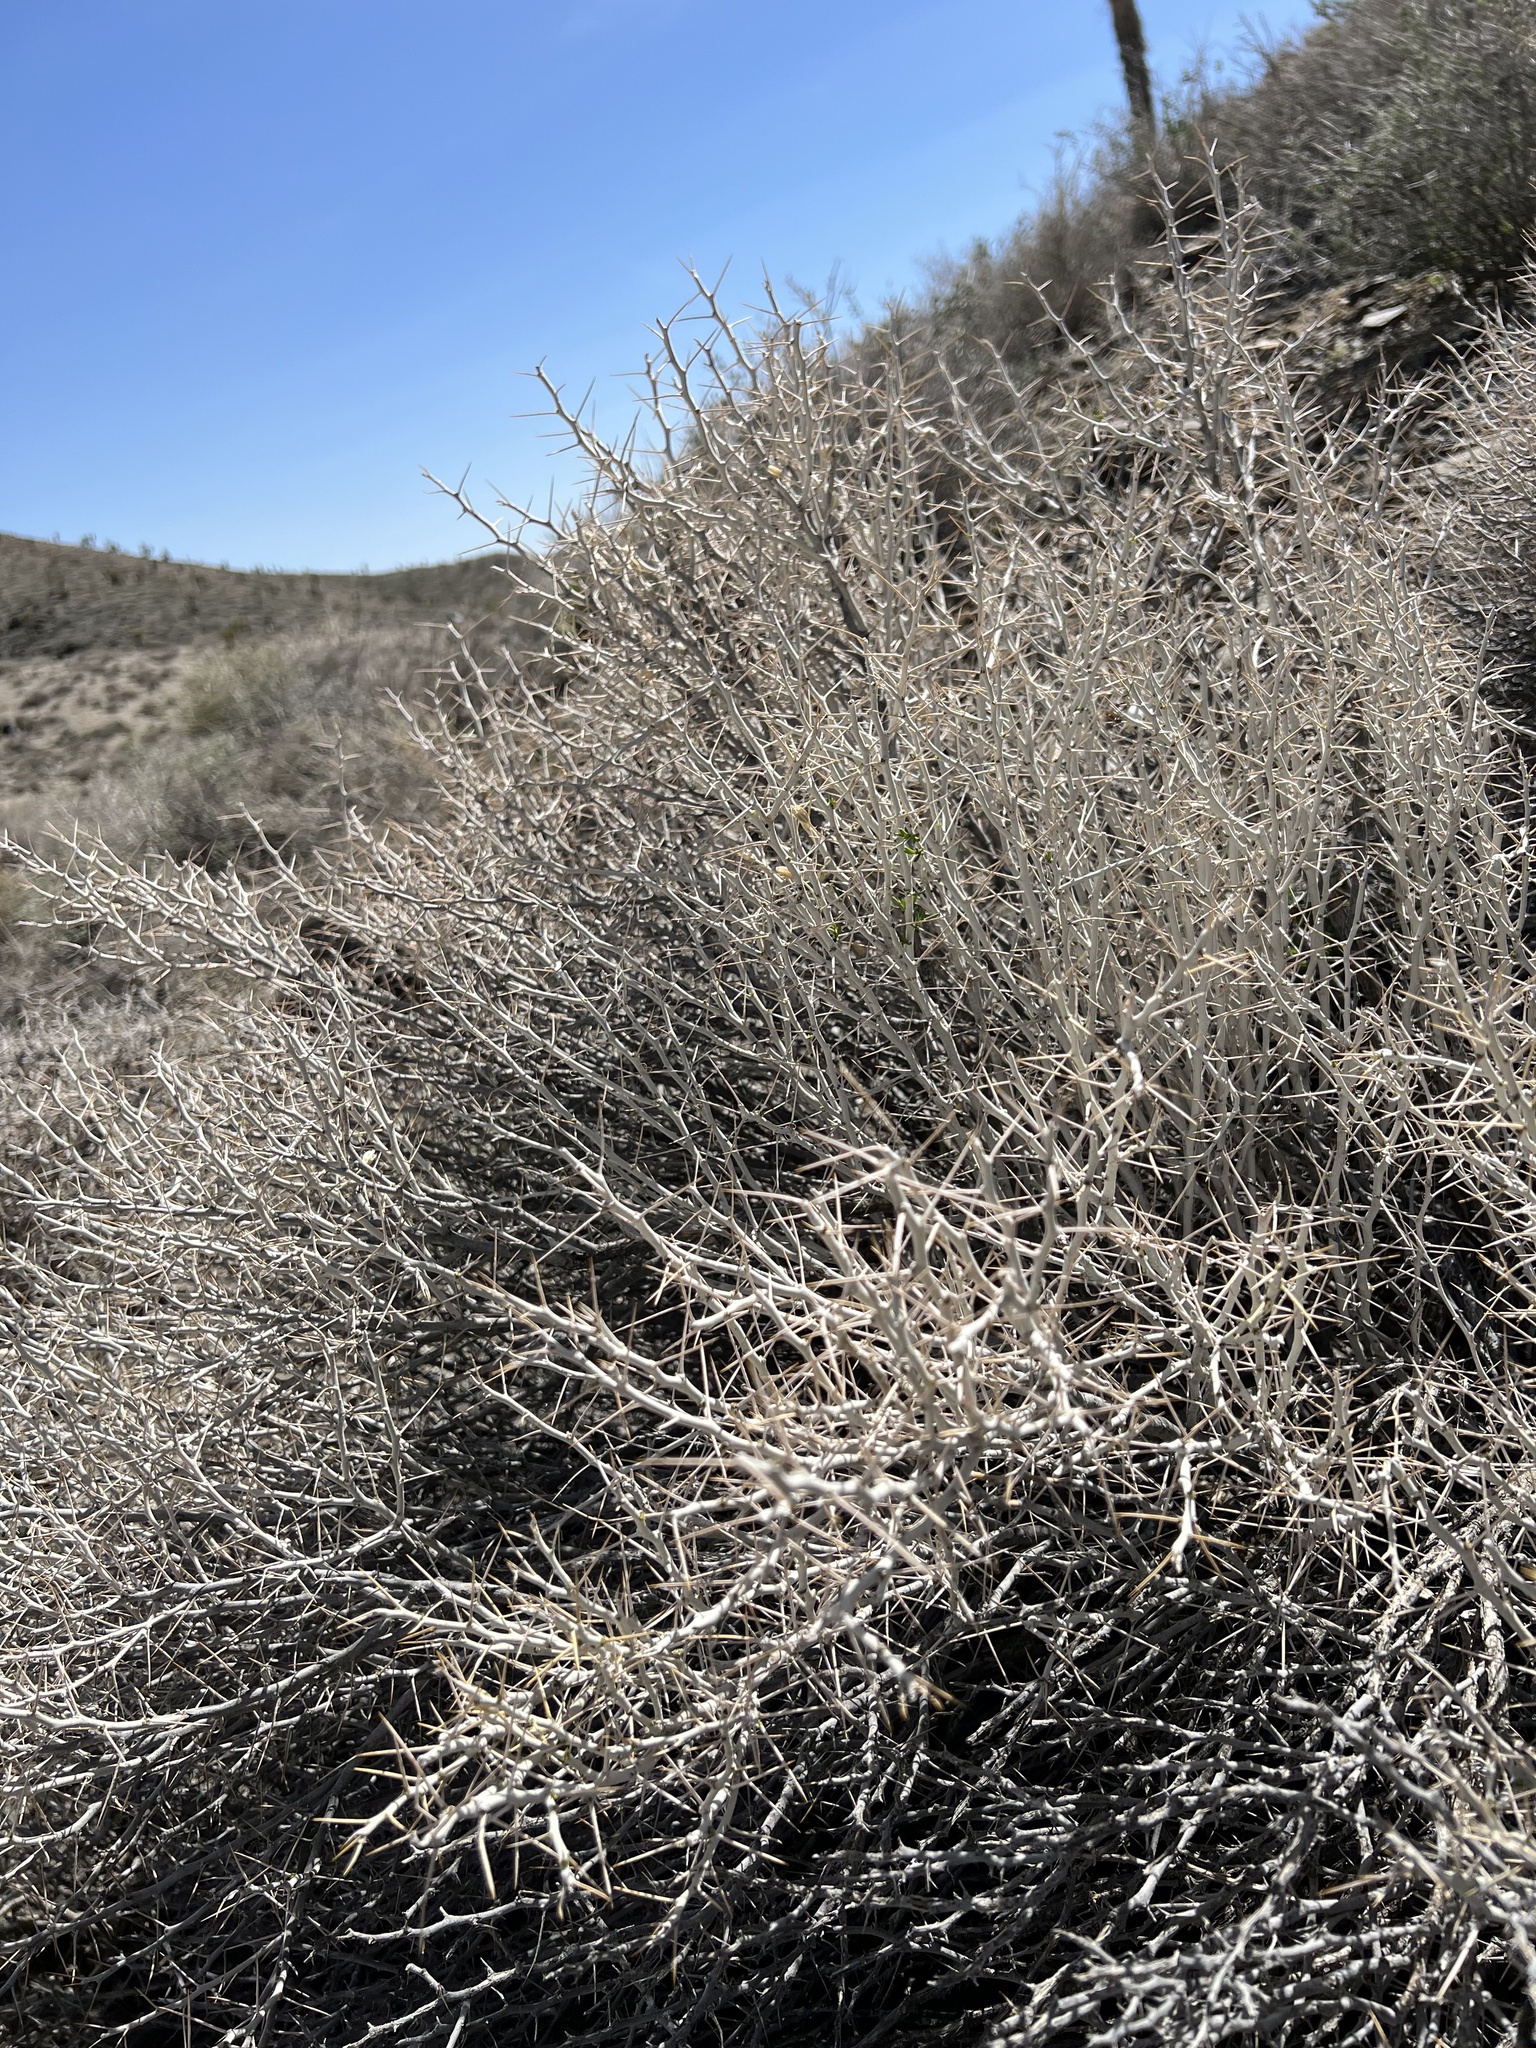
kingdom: Plantae
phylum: Tracheophyta
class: Magnoliopsida
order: Asterales
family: Asteraceae
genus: Tetradymia
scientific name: Tetradymia axillaris
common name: Long-spine horsebrush
